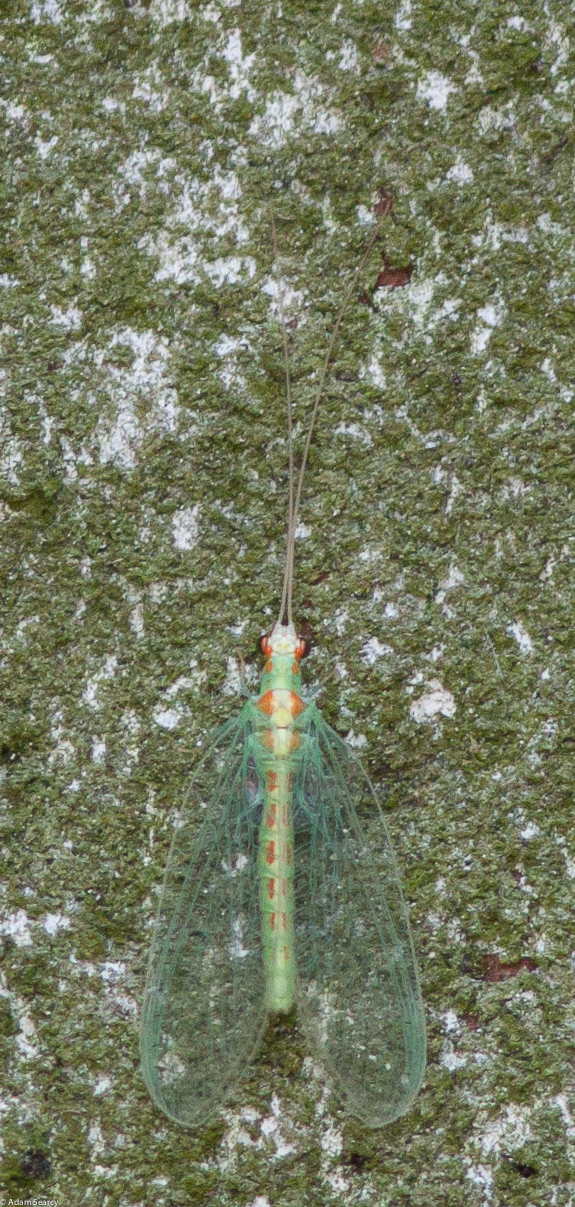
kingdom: Animalia
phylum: Arthropoda
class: Insecta
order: Neuroptera
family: Chrysopidae
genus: Chrysopa
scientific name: Chrysopa quadripunctata
